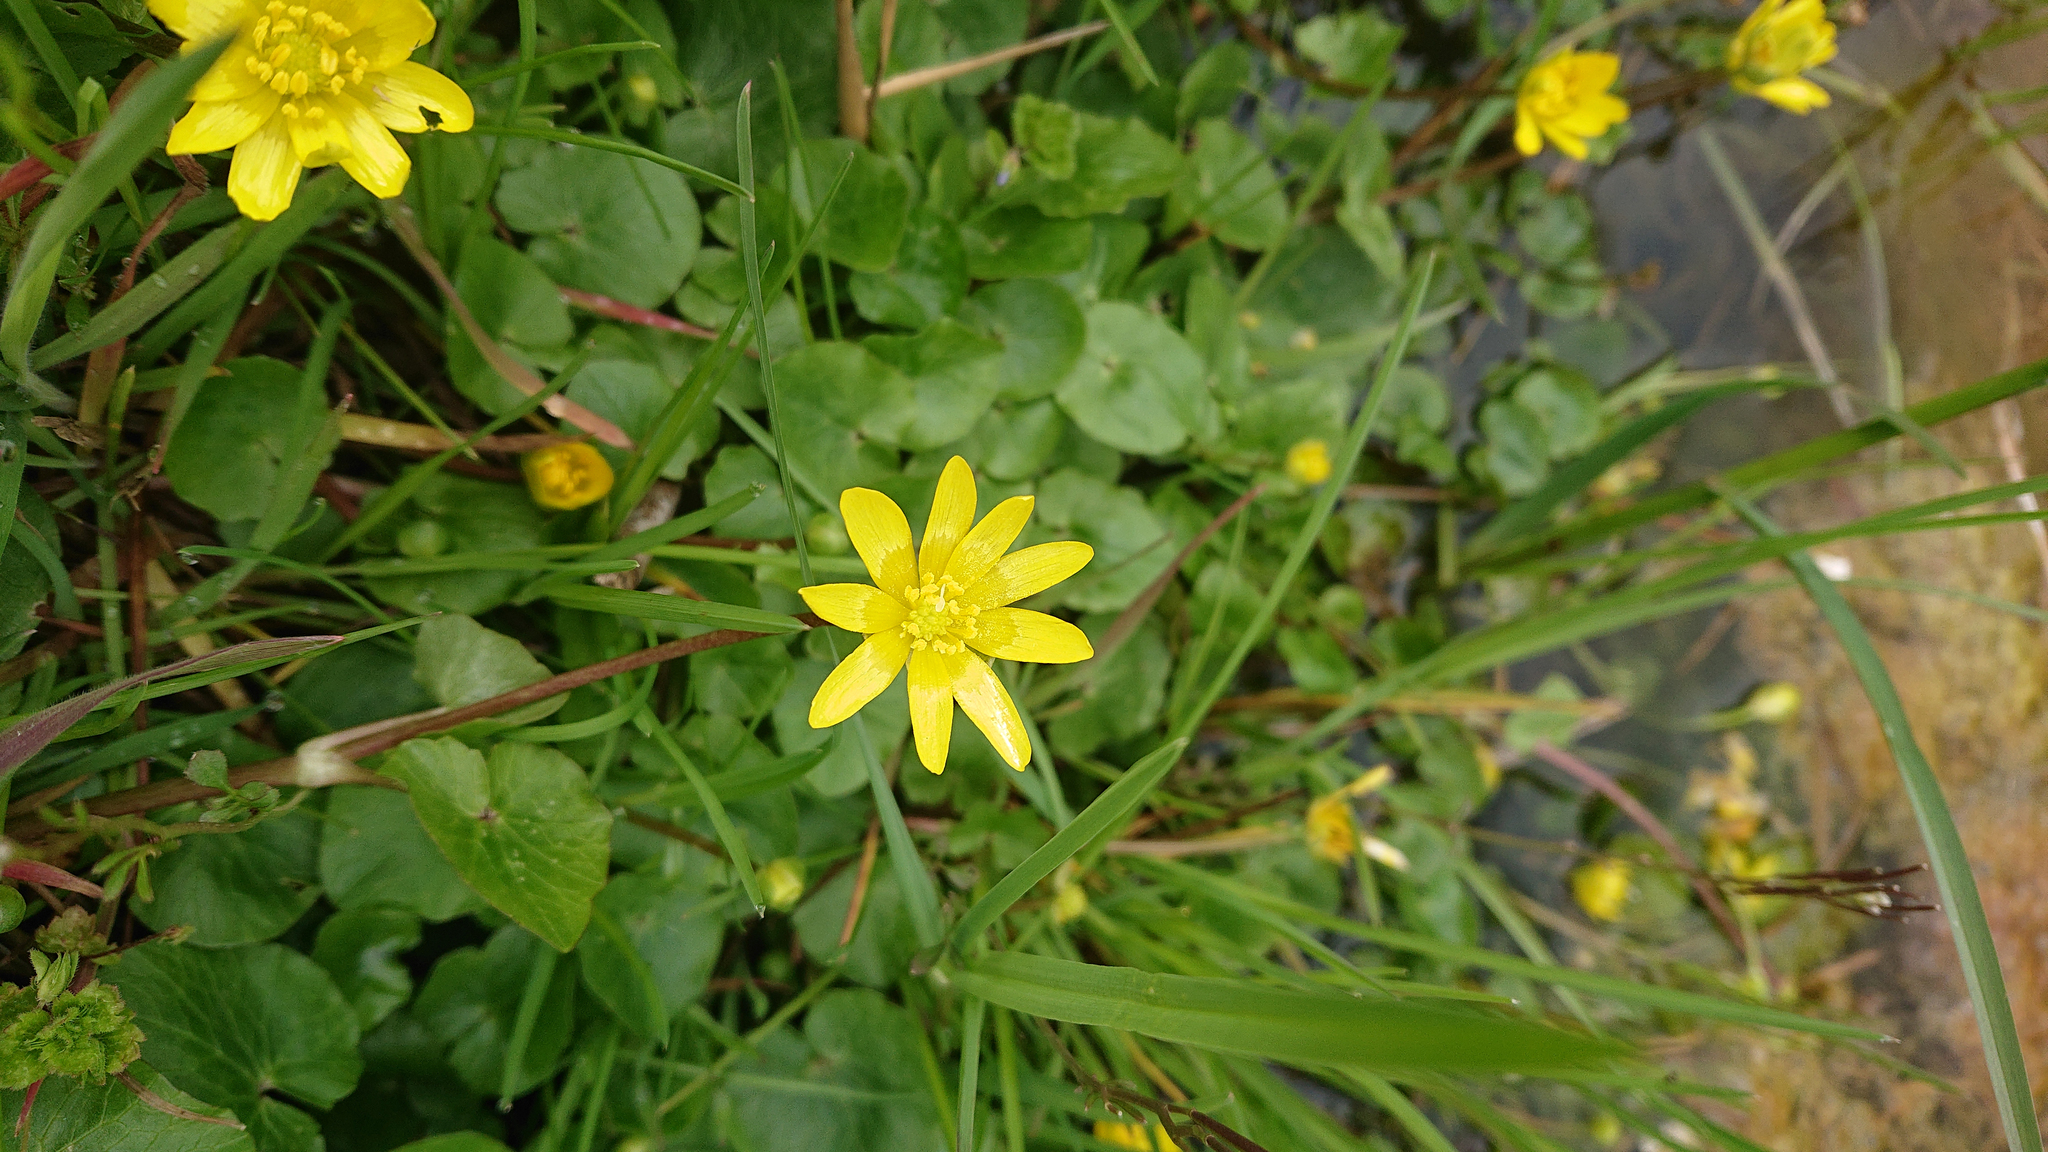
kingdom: Plantae
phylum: Tracheophyta
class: Magnoliopsida
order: Ranunculales
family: Ranunculaceae
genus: Ficaria
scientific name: Ficaria verna
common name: Lesser celandine
